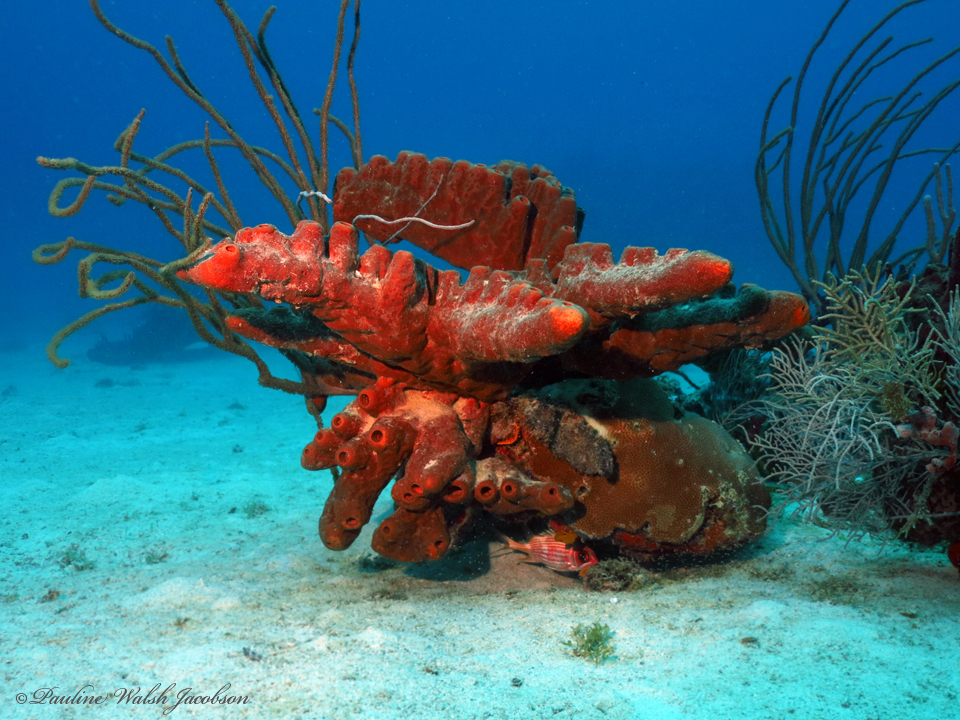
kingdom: Animalia
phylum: Porifera
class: Demospongiae
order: Agelasida
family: Agelasidae
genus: Agelas
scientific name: Agelas conifera
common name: Brown tube sponge
